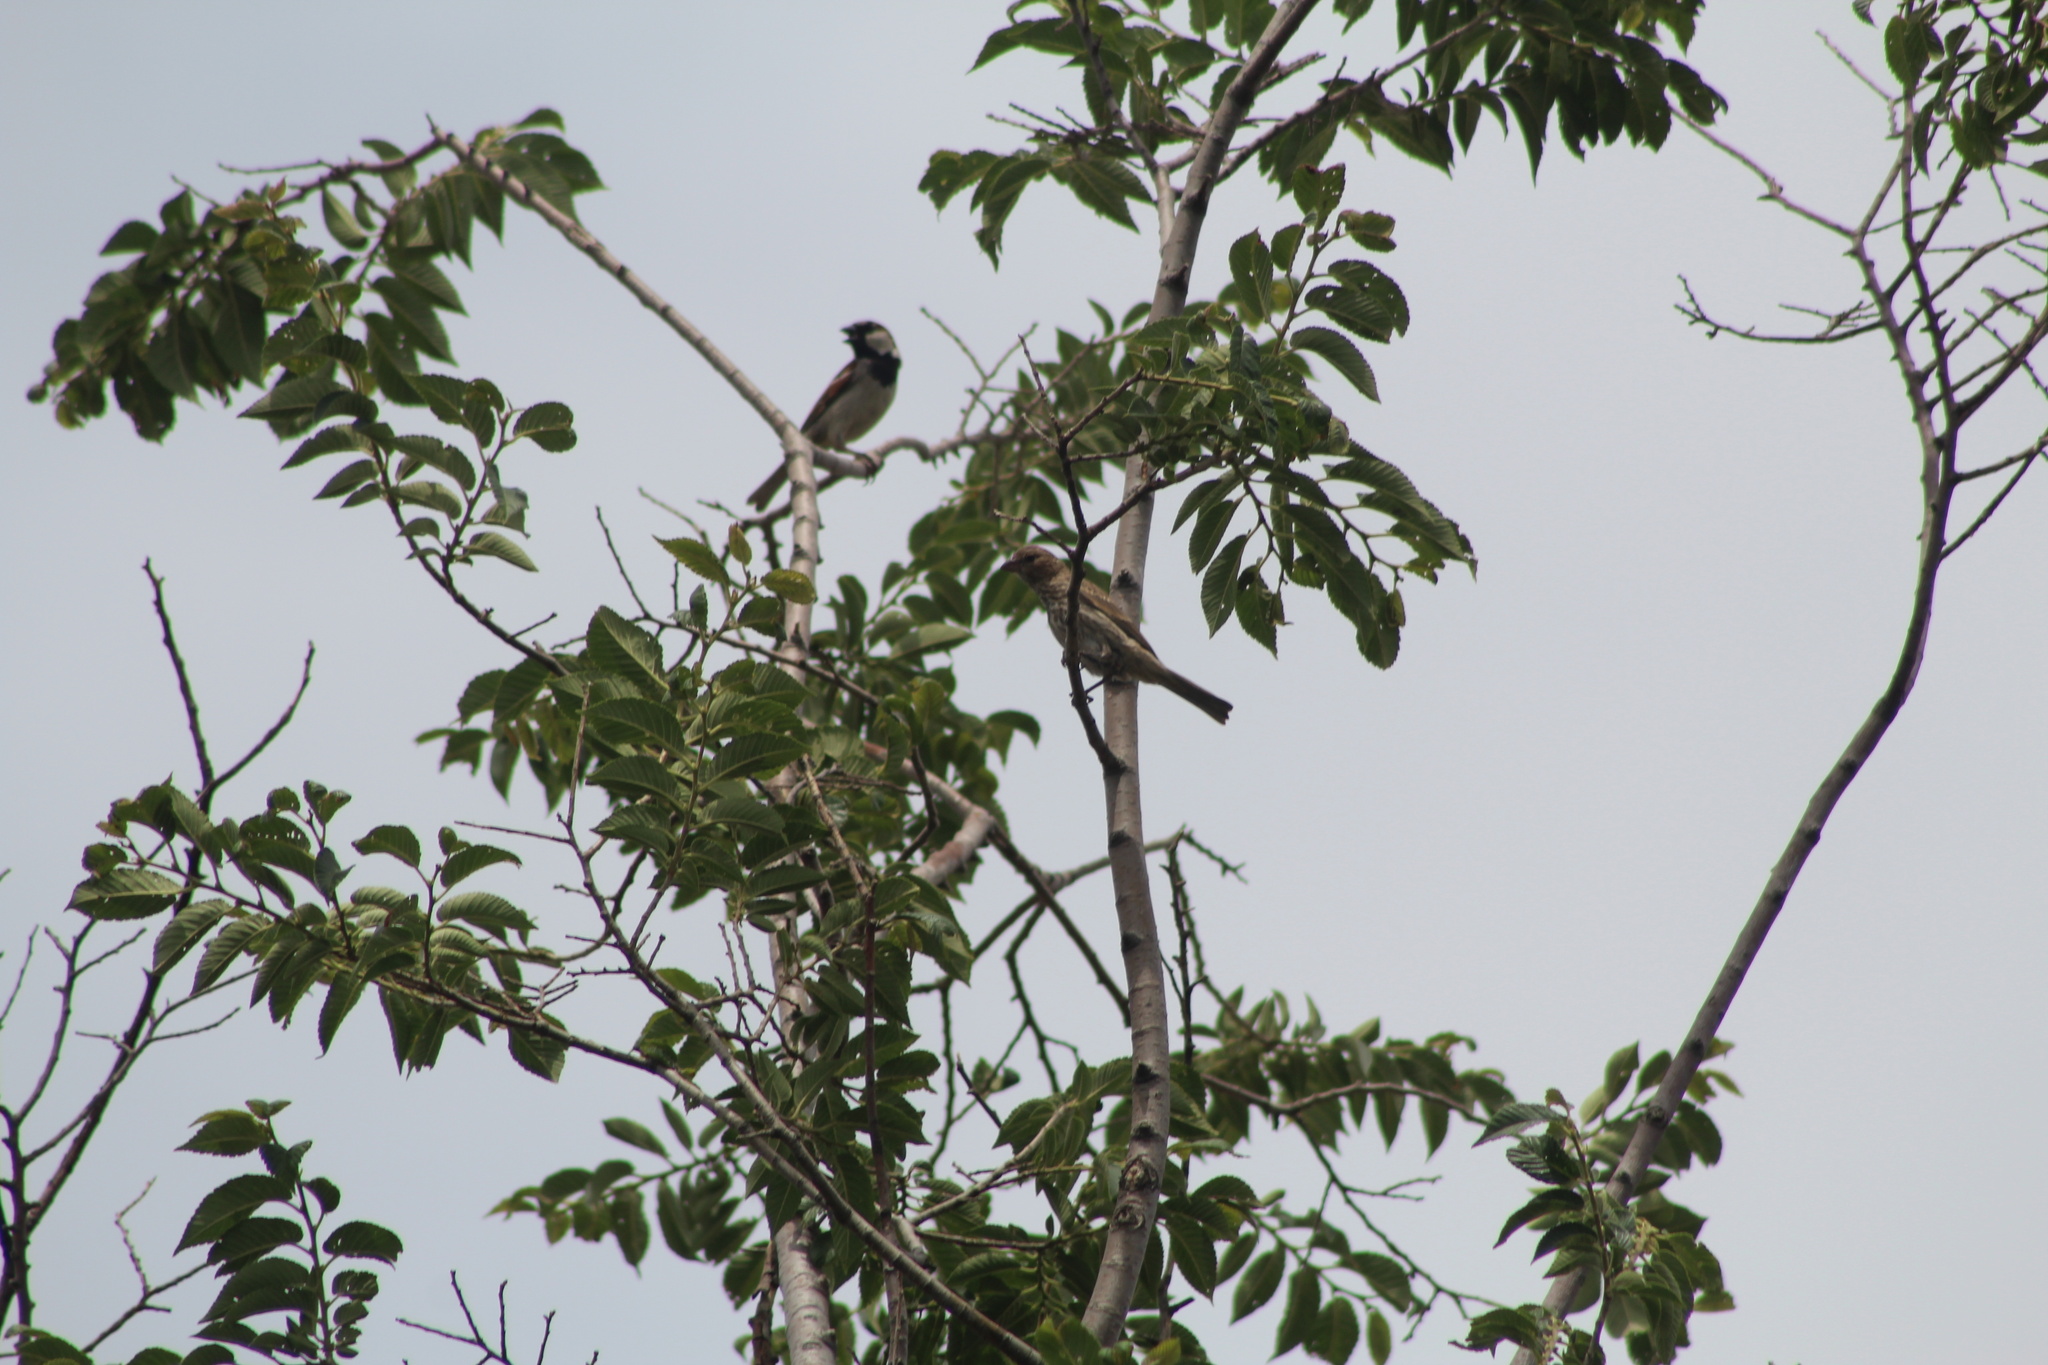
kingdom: Animalia
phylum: Chordata
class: Aves
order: Passeriformes
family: Passeridae
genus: Passer
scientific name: Passer domesticus
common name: House sparrow
